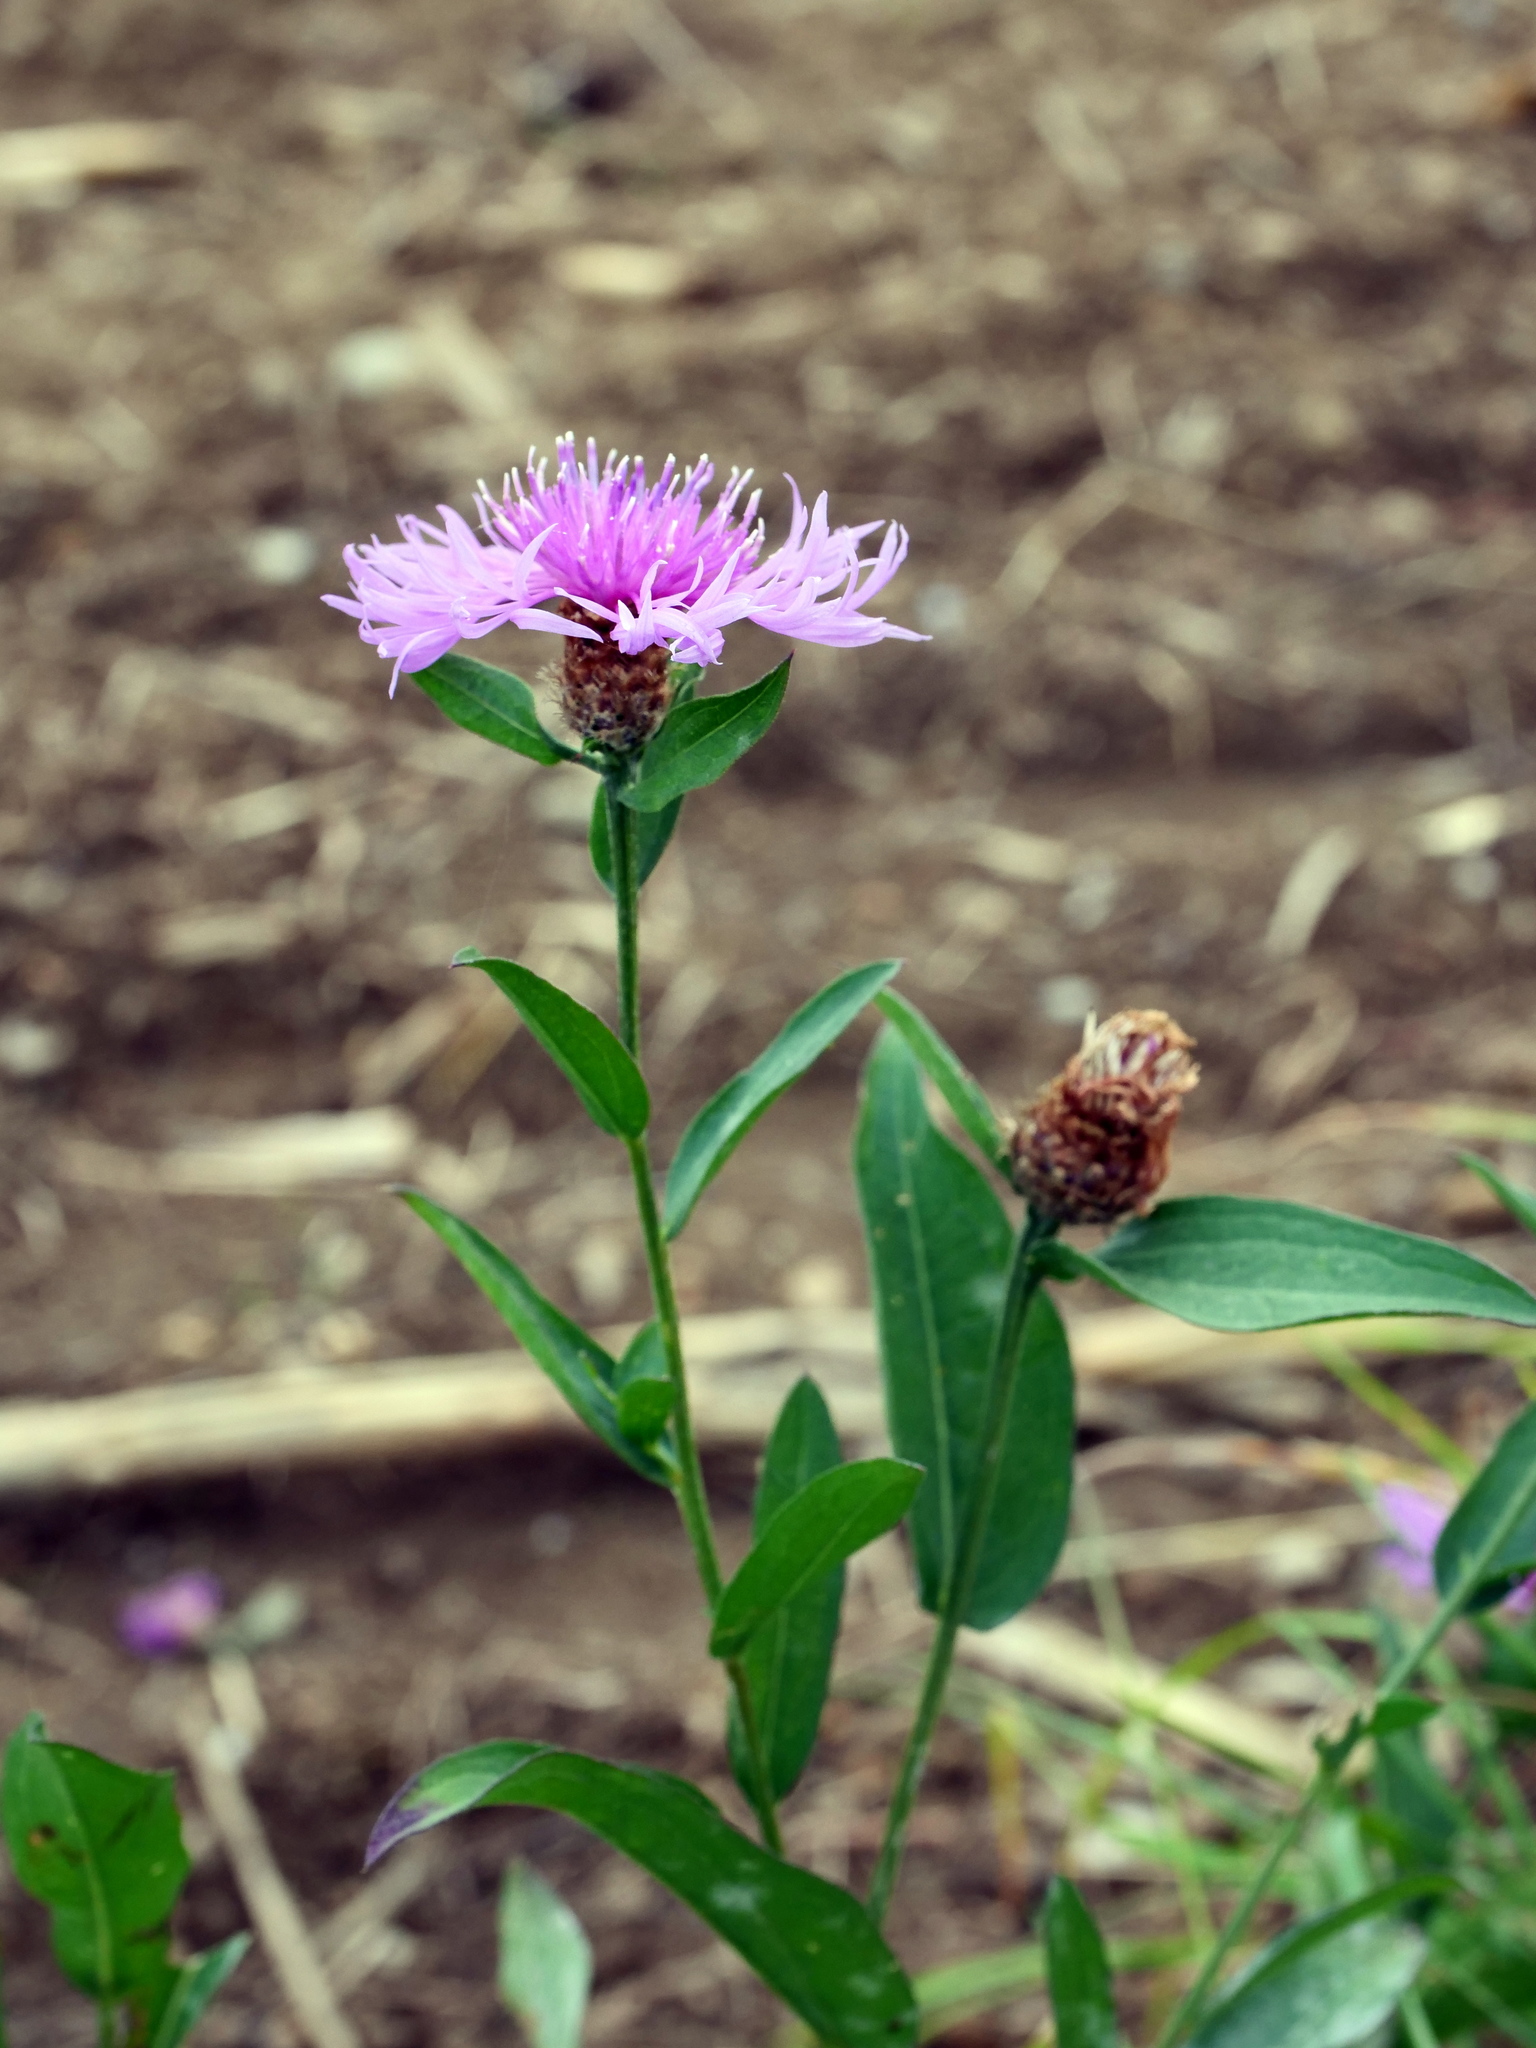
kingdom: Plantae
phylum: Tracheophyta
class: Magnoliopsida
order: Asterales
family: Asteraceae
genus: Centaurea
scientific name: Centaurea jacea
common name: Brown knapweed
